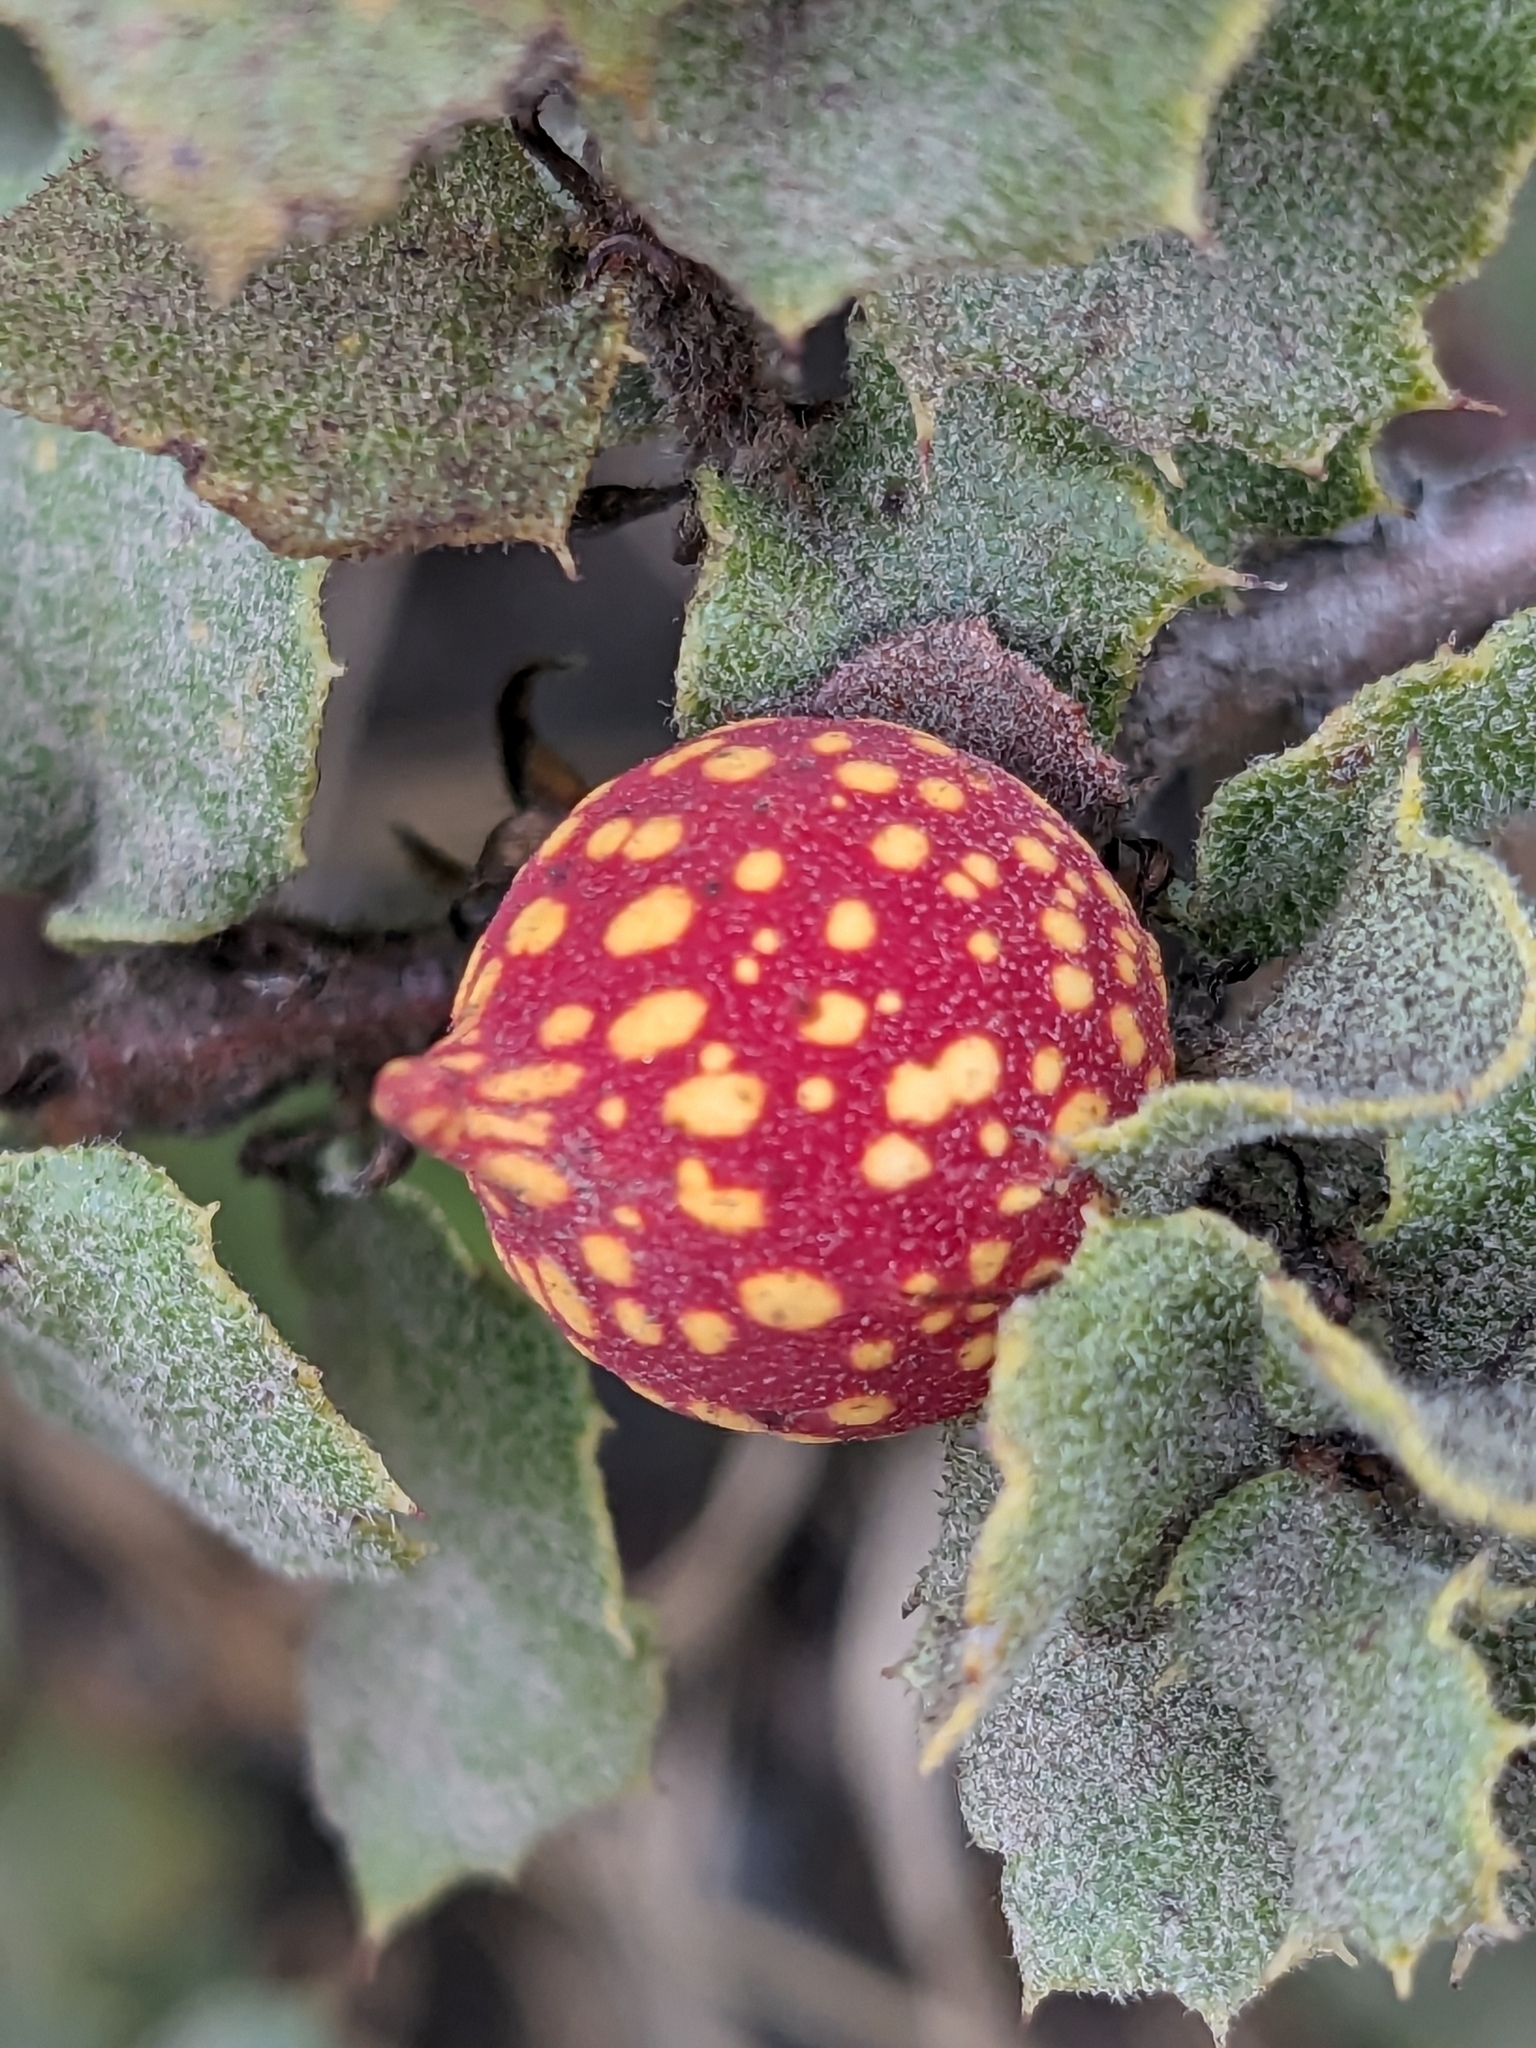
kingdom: Animalia
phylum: Arthropoda
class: Insecta
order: Hymenoptera
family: Cynipidae
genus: Burnettweldia
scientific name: Burnettweldia
